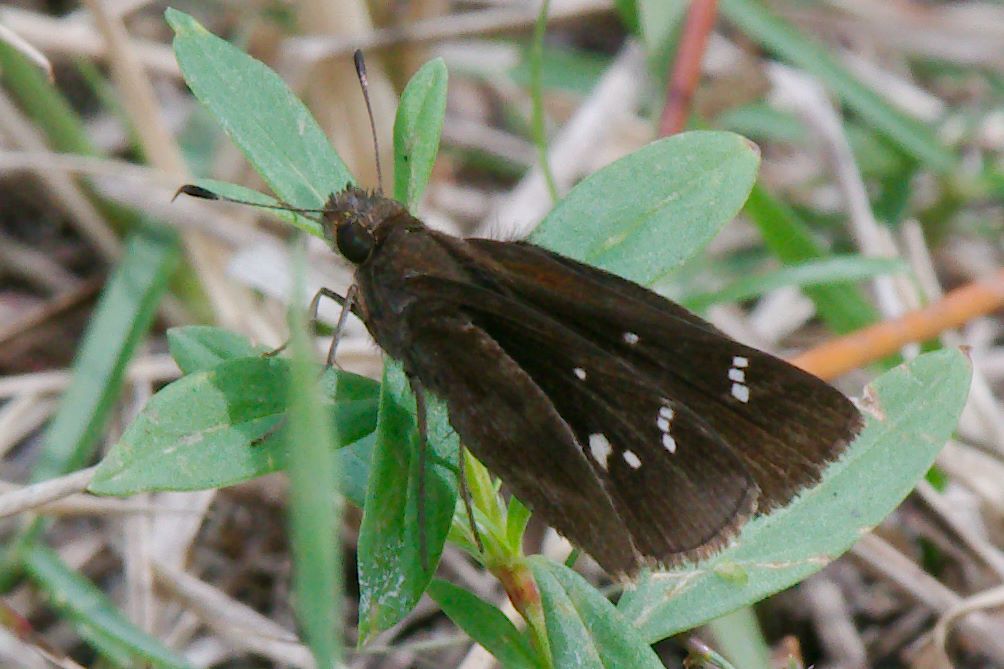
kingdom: Animalia
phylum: Arthropoda
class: Insecta
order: Lepidoptera
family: Hesperiidae
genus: Lerema
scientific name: Lerema accius
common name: Clouded skipper
